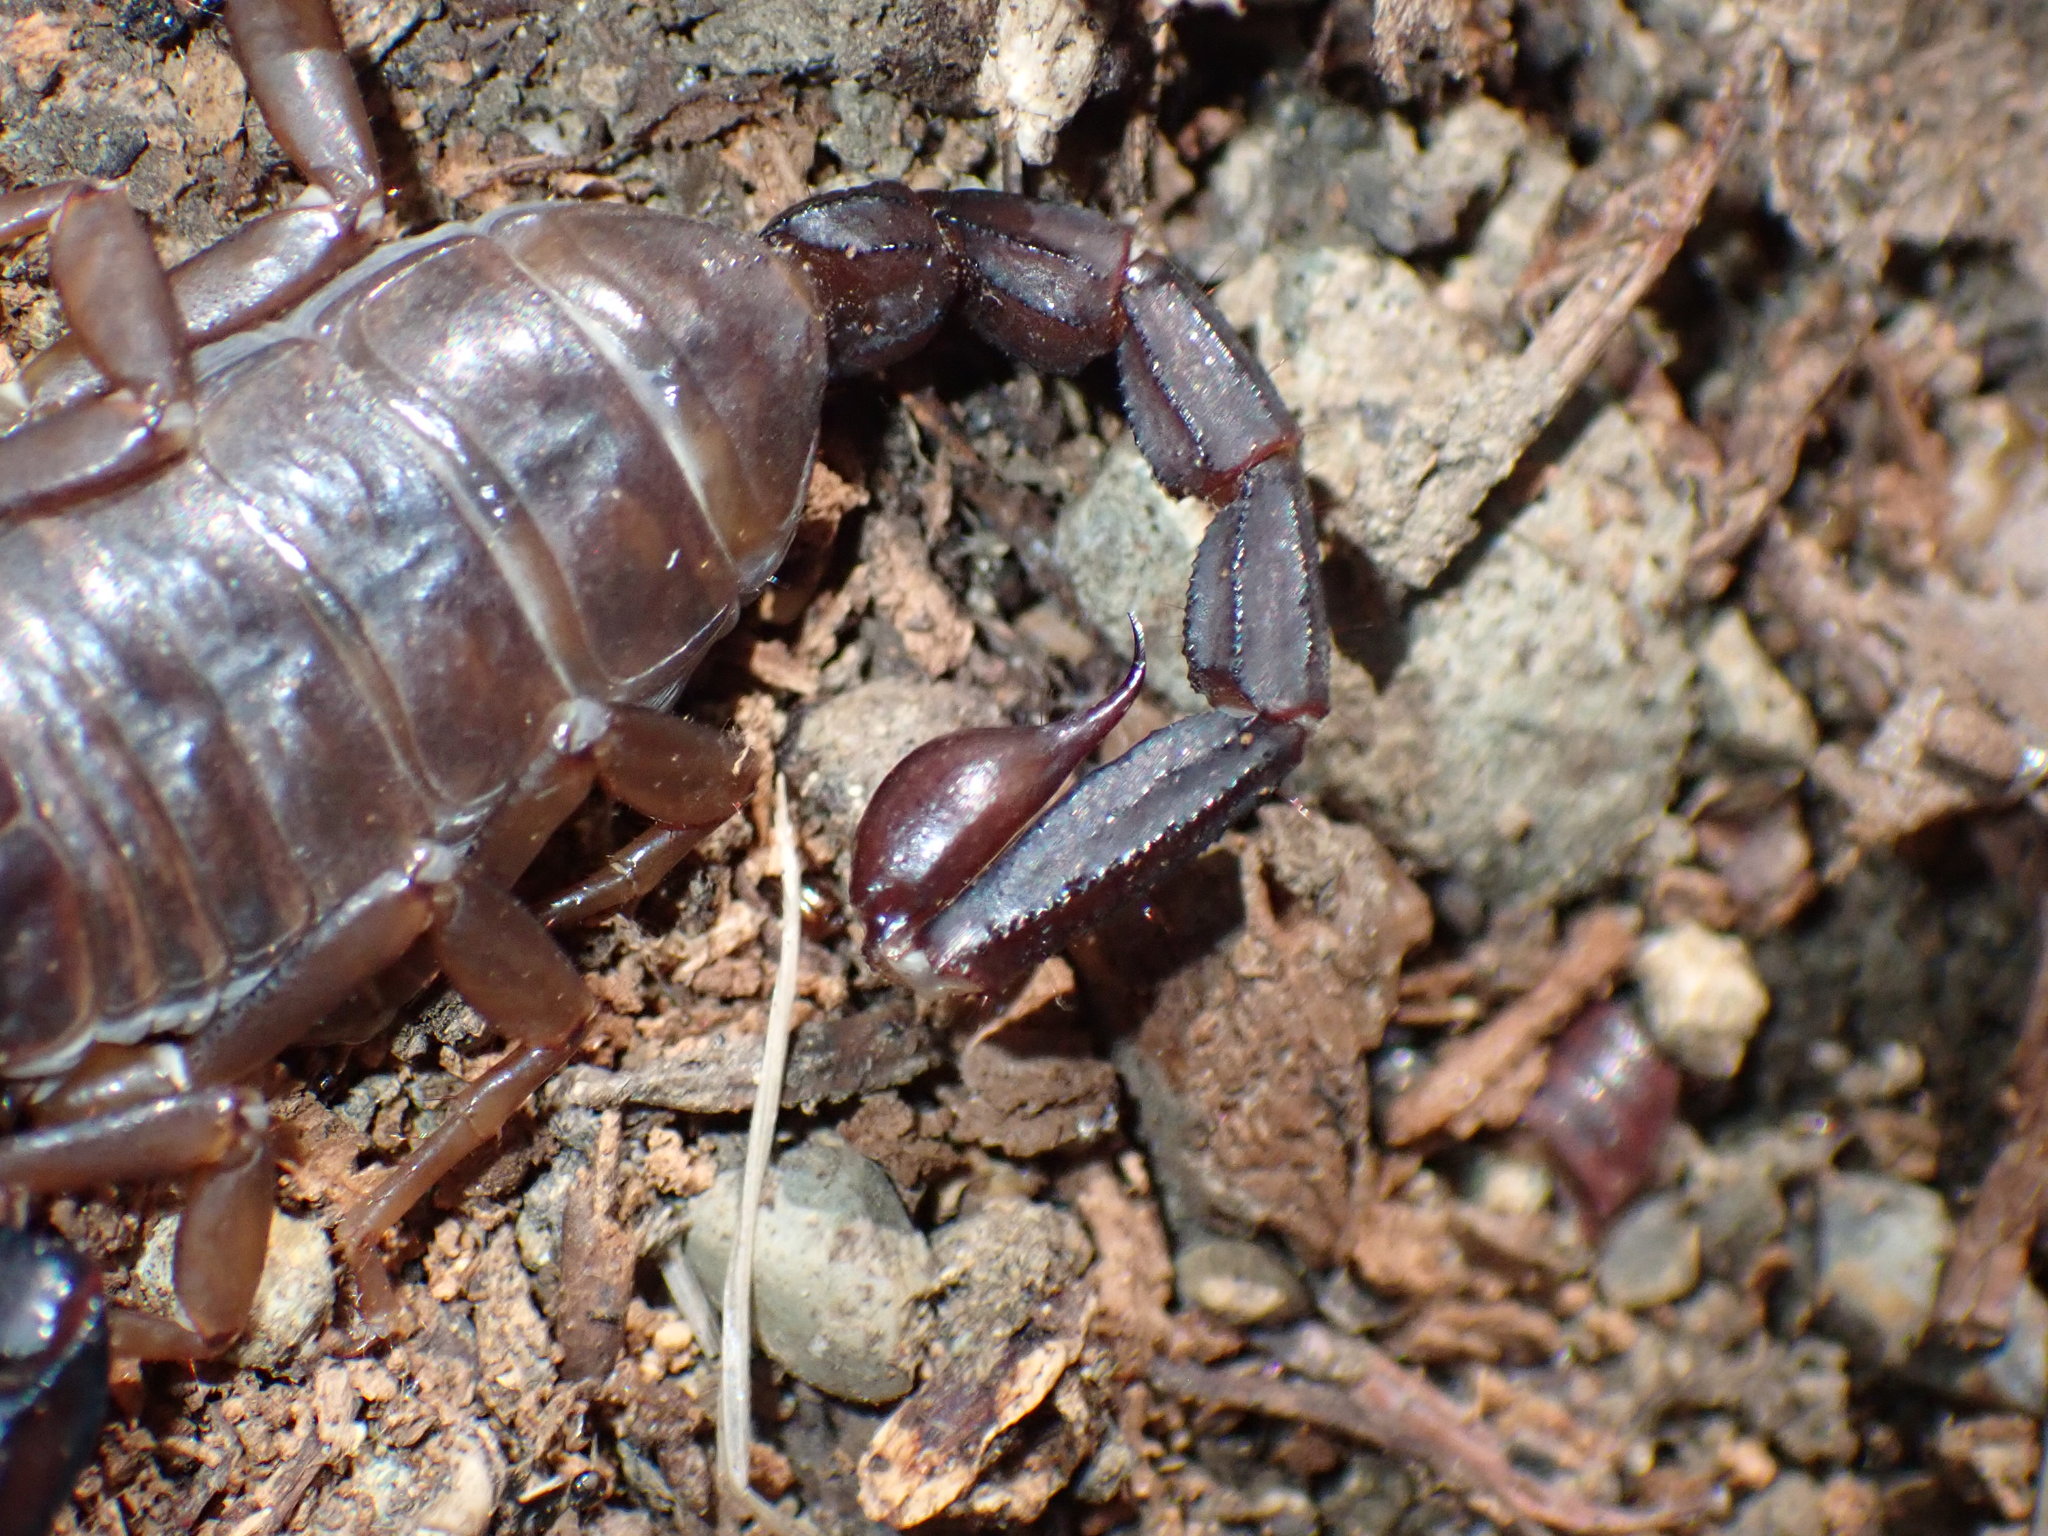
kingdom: Animalia
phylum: Arthropoda
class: Arachnida
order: Scorpiones
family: Chactidae
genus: Uroctonus
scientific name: Uroctonus mordax
